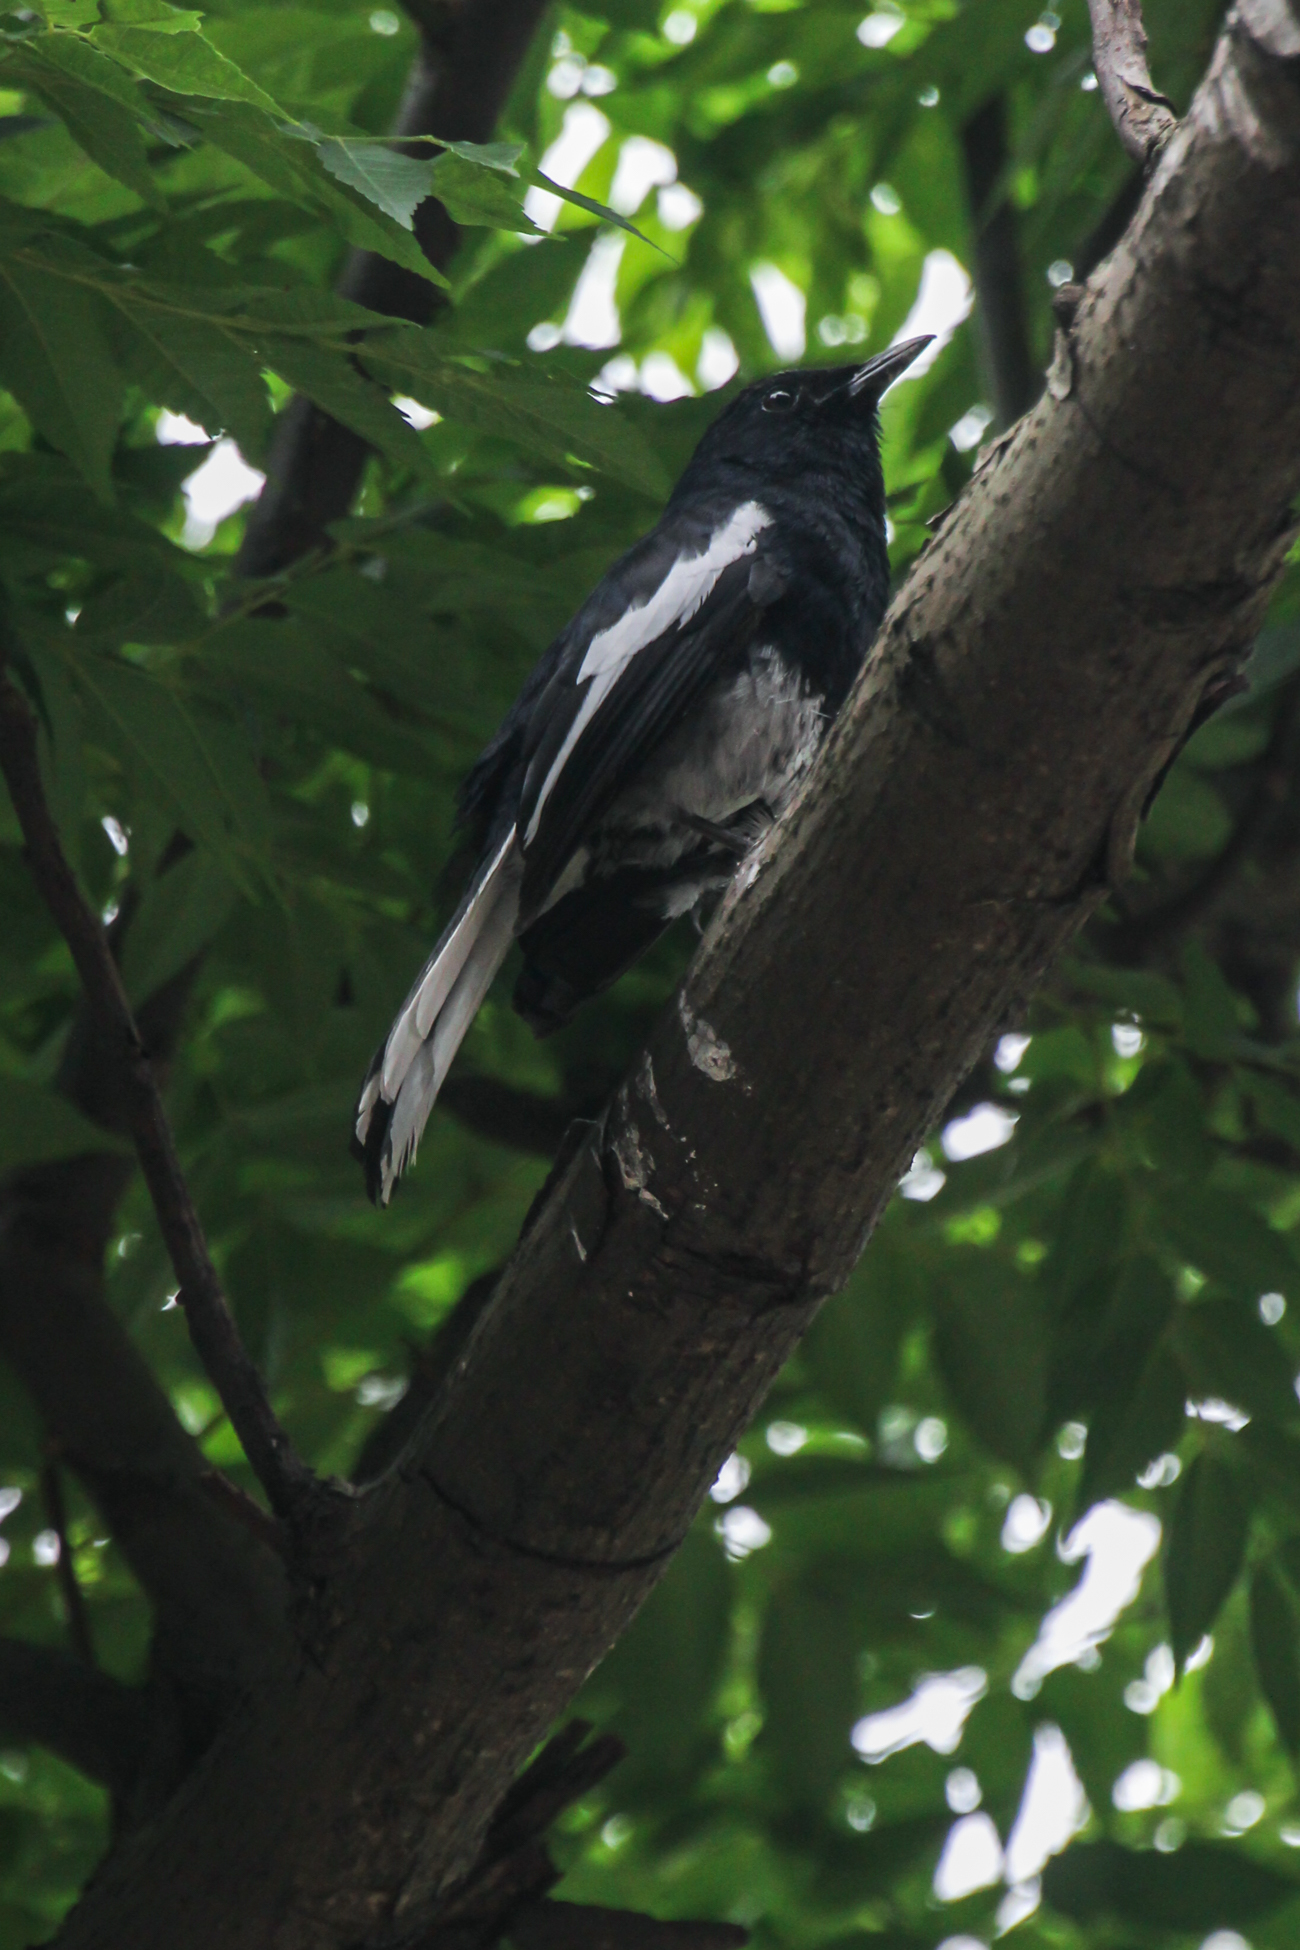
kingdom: Animalia
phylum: Chordata
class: Aves
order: Passeriformes
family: Muscicapidae
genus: Copsychus
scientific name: Copsychus saularis
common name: Oriental magpie-robin
